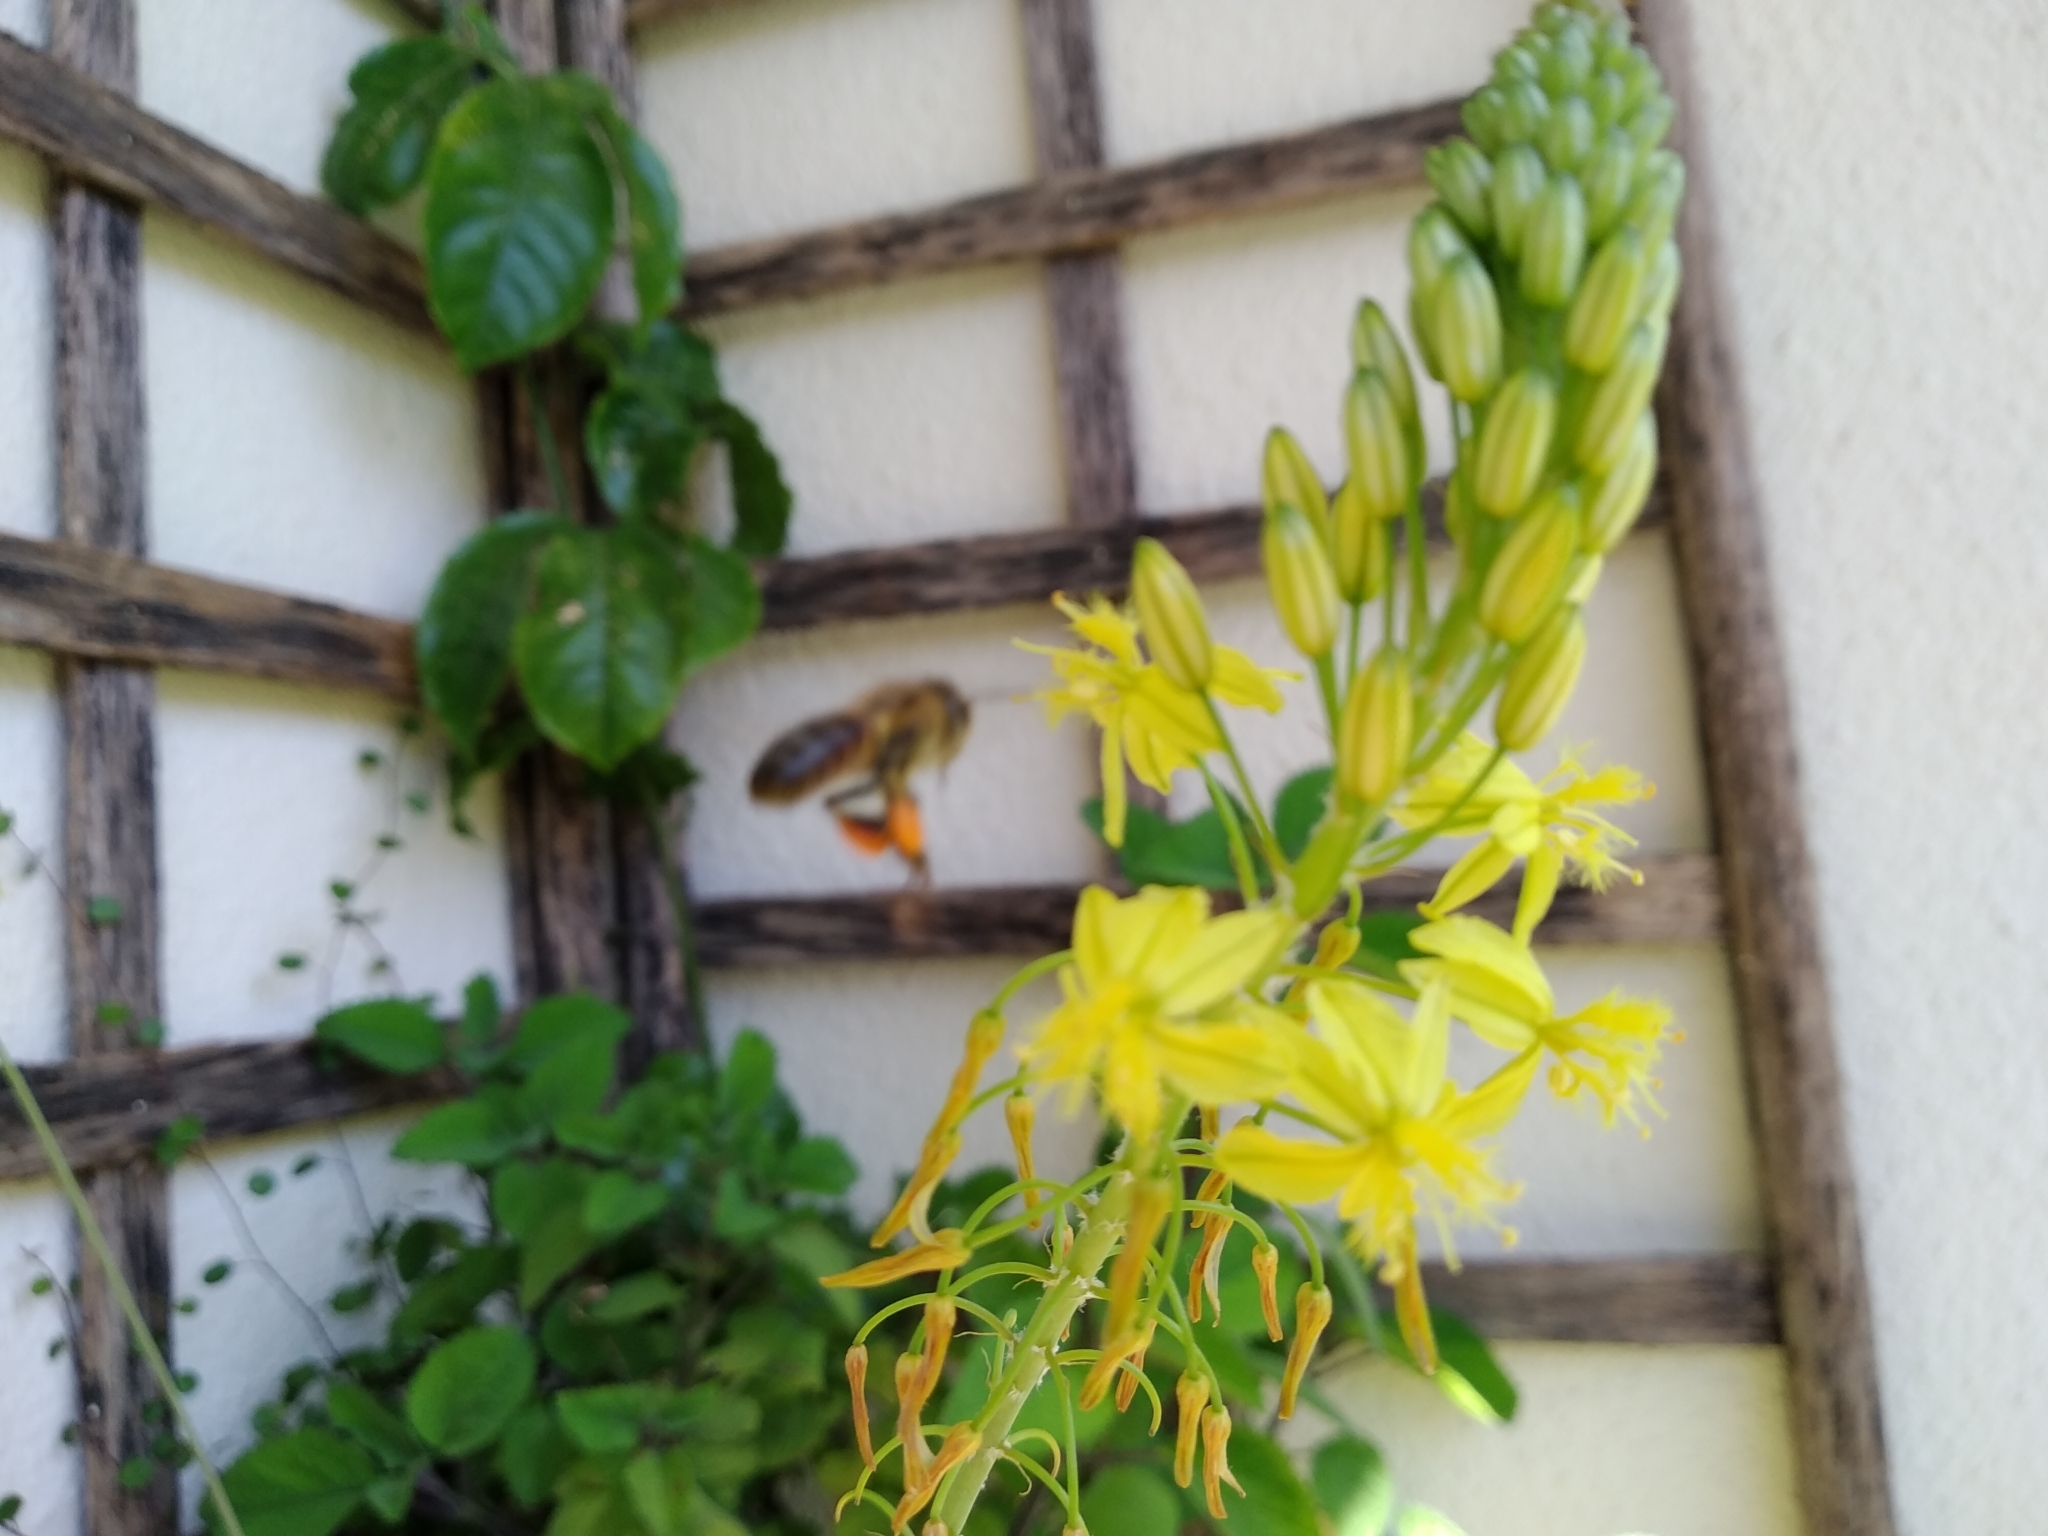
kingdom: Animalia
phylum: Arthropoda
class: Insecta
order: Hymenoptera
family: Apidae
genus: Apis
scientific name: Apis mellifera
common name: Honey bee
